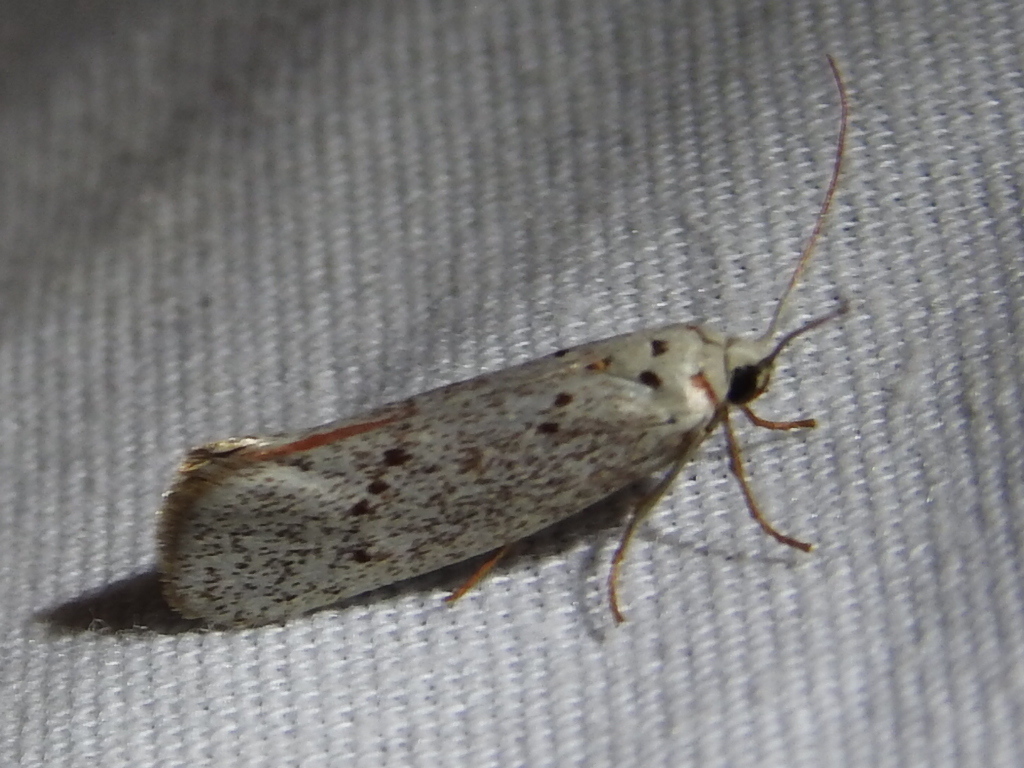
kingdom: Animalia
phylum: Arthropoda
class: Insecta
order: Lepidoptera
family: Lacturidae
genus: Lactura
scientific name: Lactura
